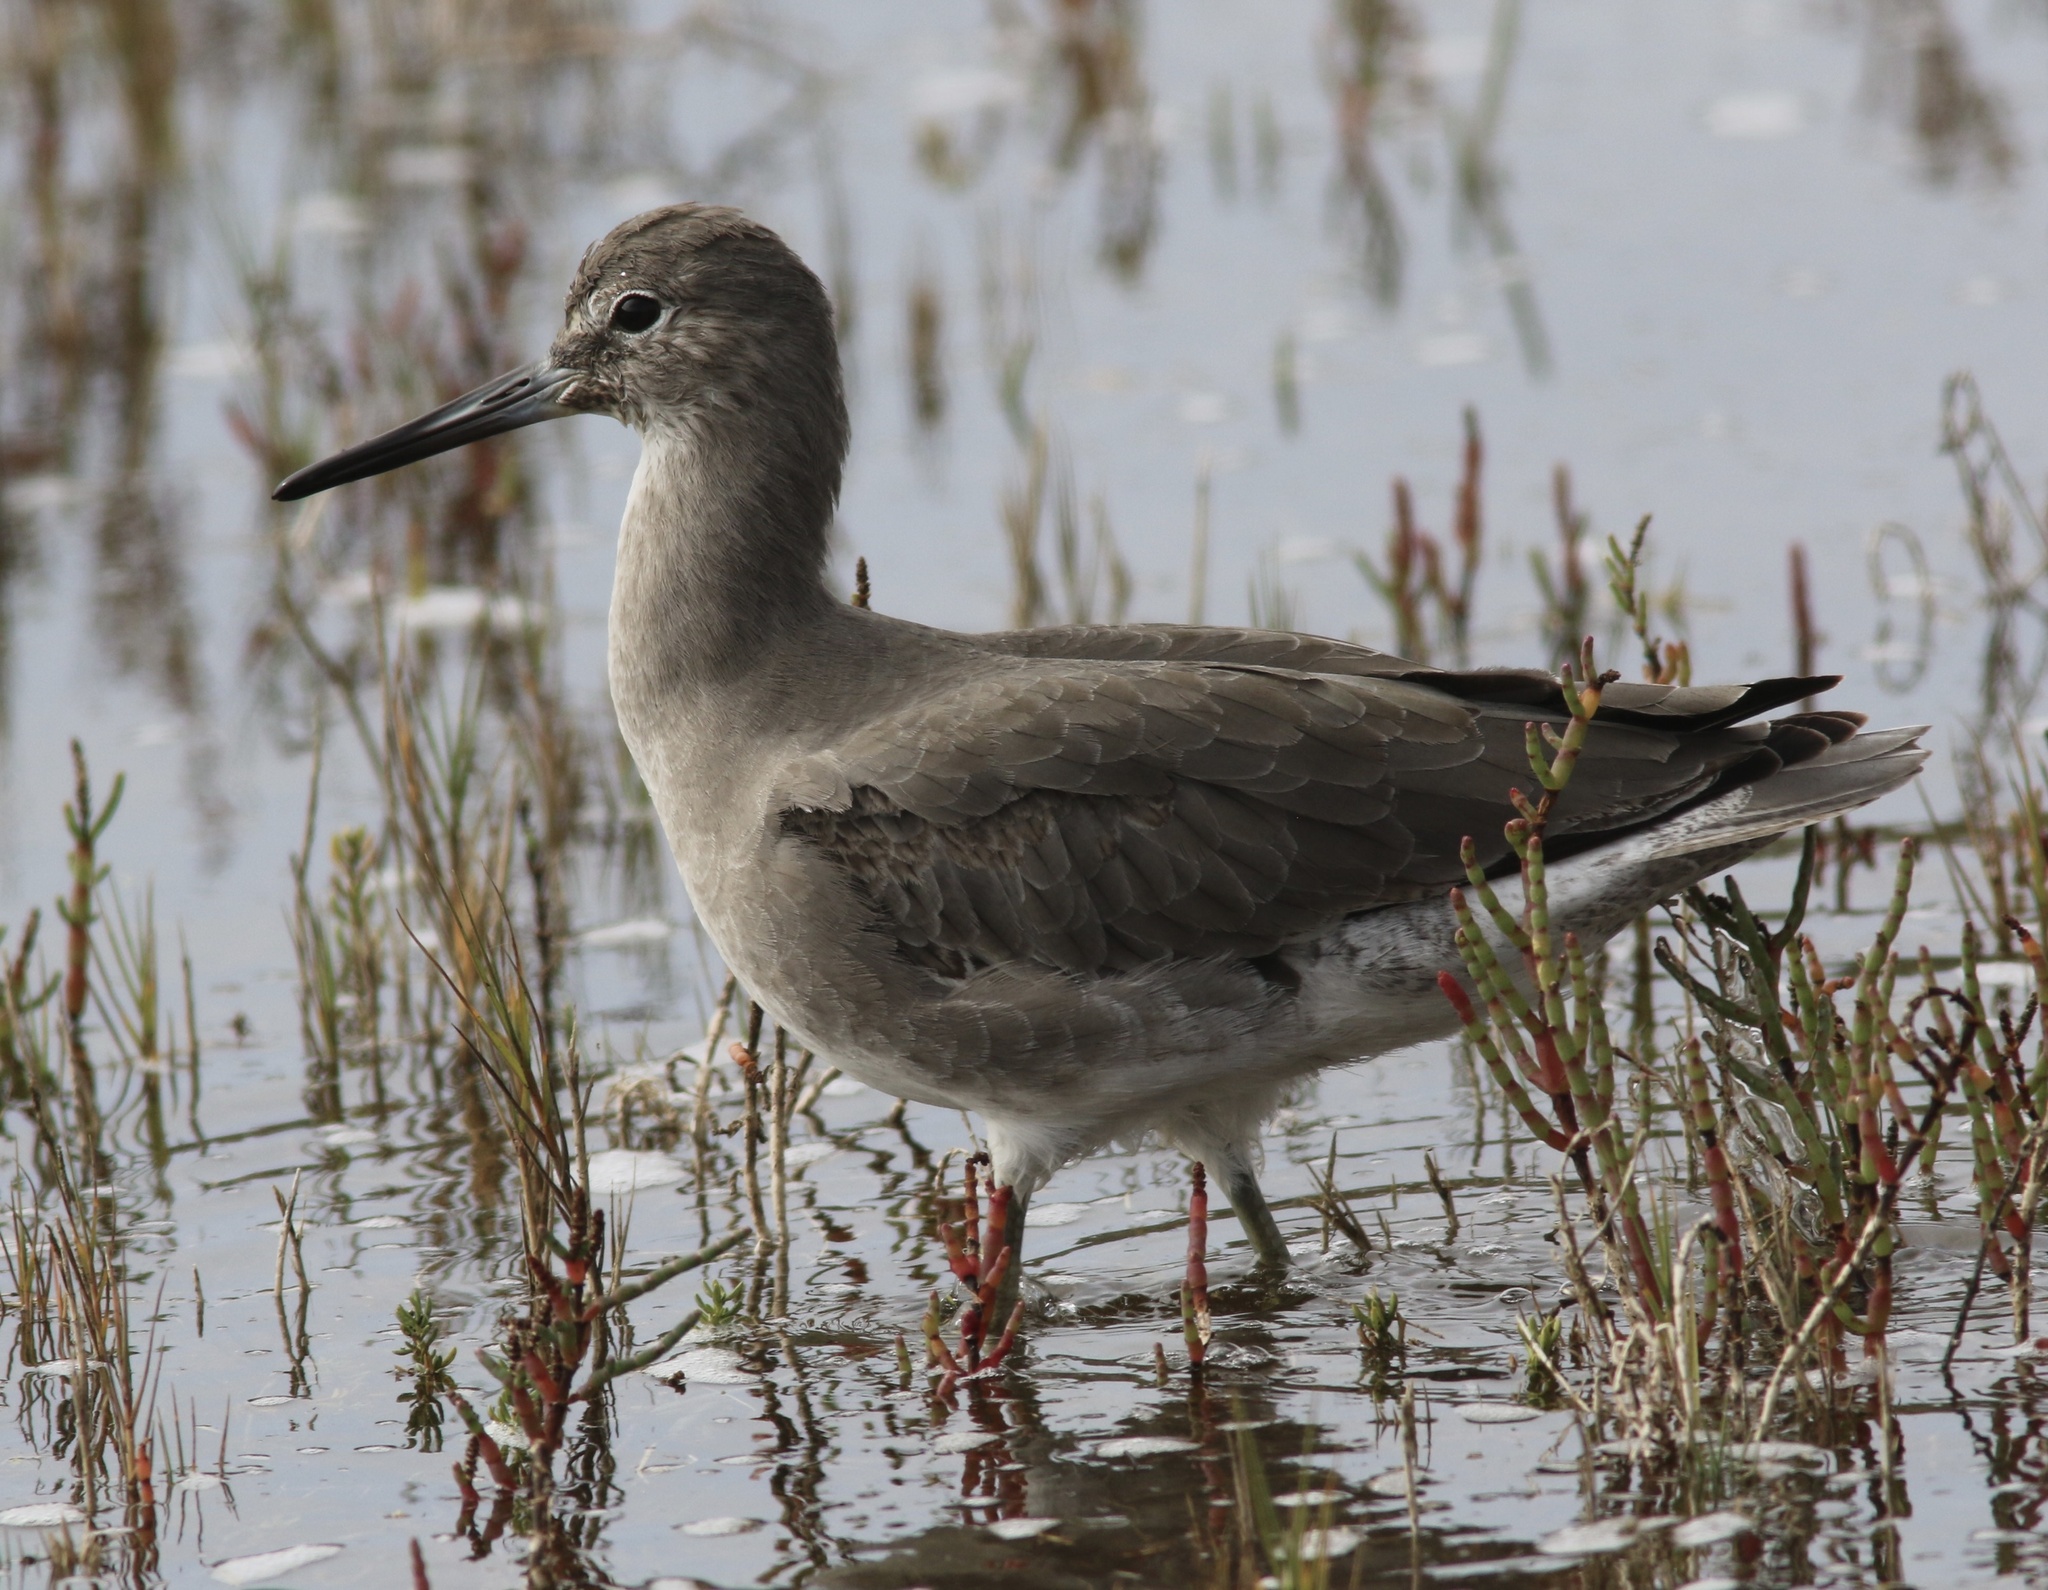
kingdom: Animalia
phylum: Chordata
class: Aves
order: Charadriiformes
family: Scolopacidae
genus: Tringa
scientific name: Tringa semipalmata
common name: Willet
